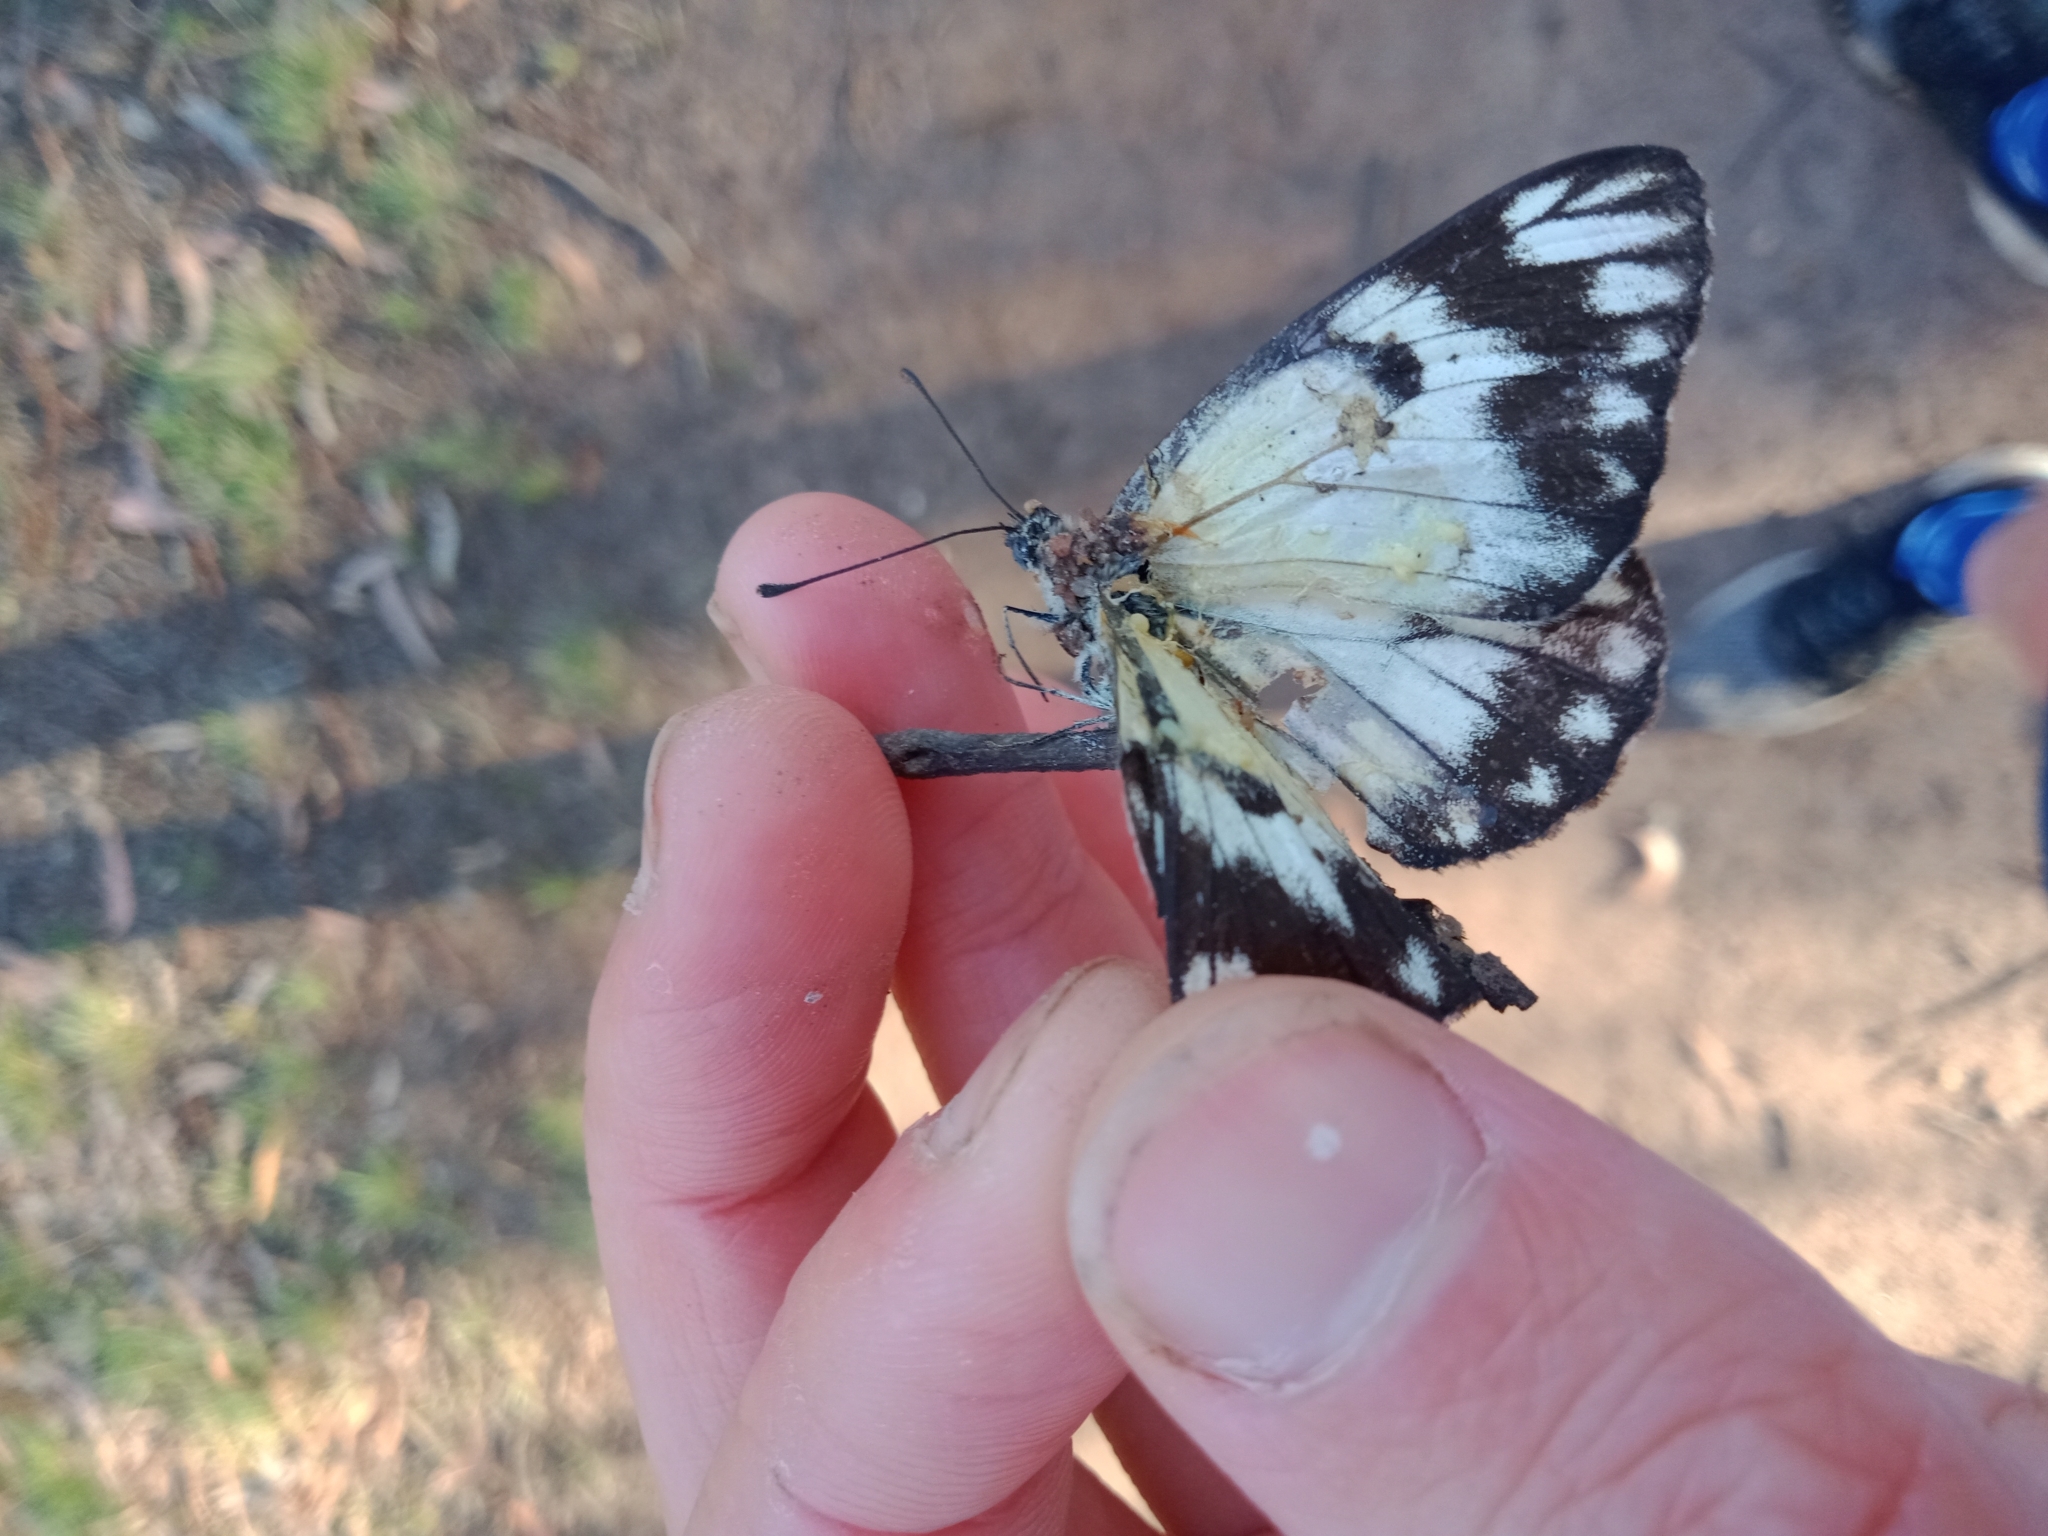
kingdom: Animalia
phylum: Arthropoda
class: Insecta
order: Lepidoptera
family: Pieridae
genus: Belenois
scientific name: Belenois java
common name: Caper white
